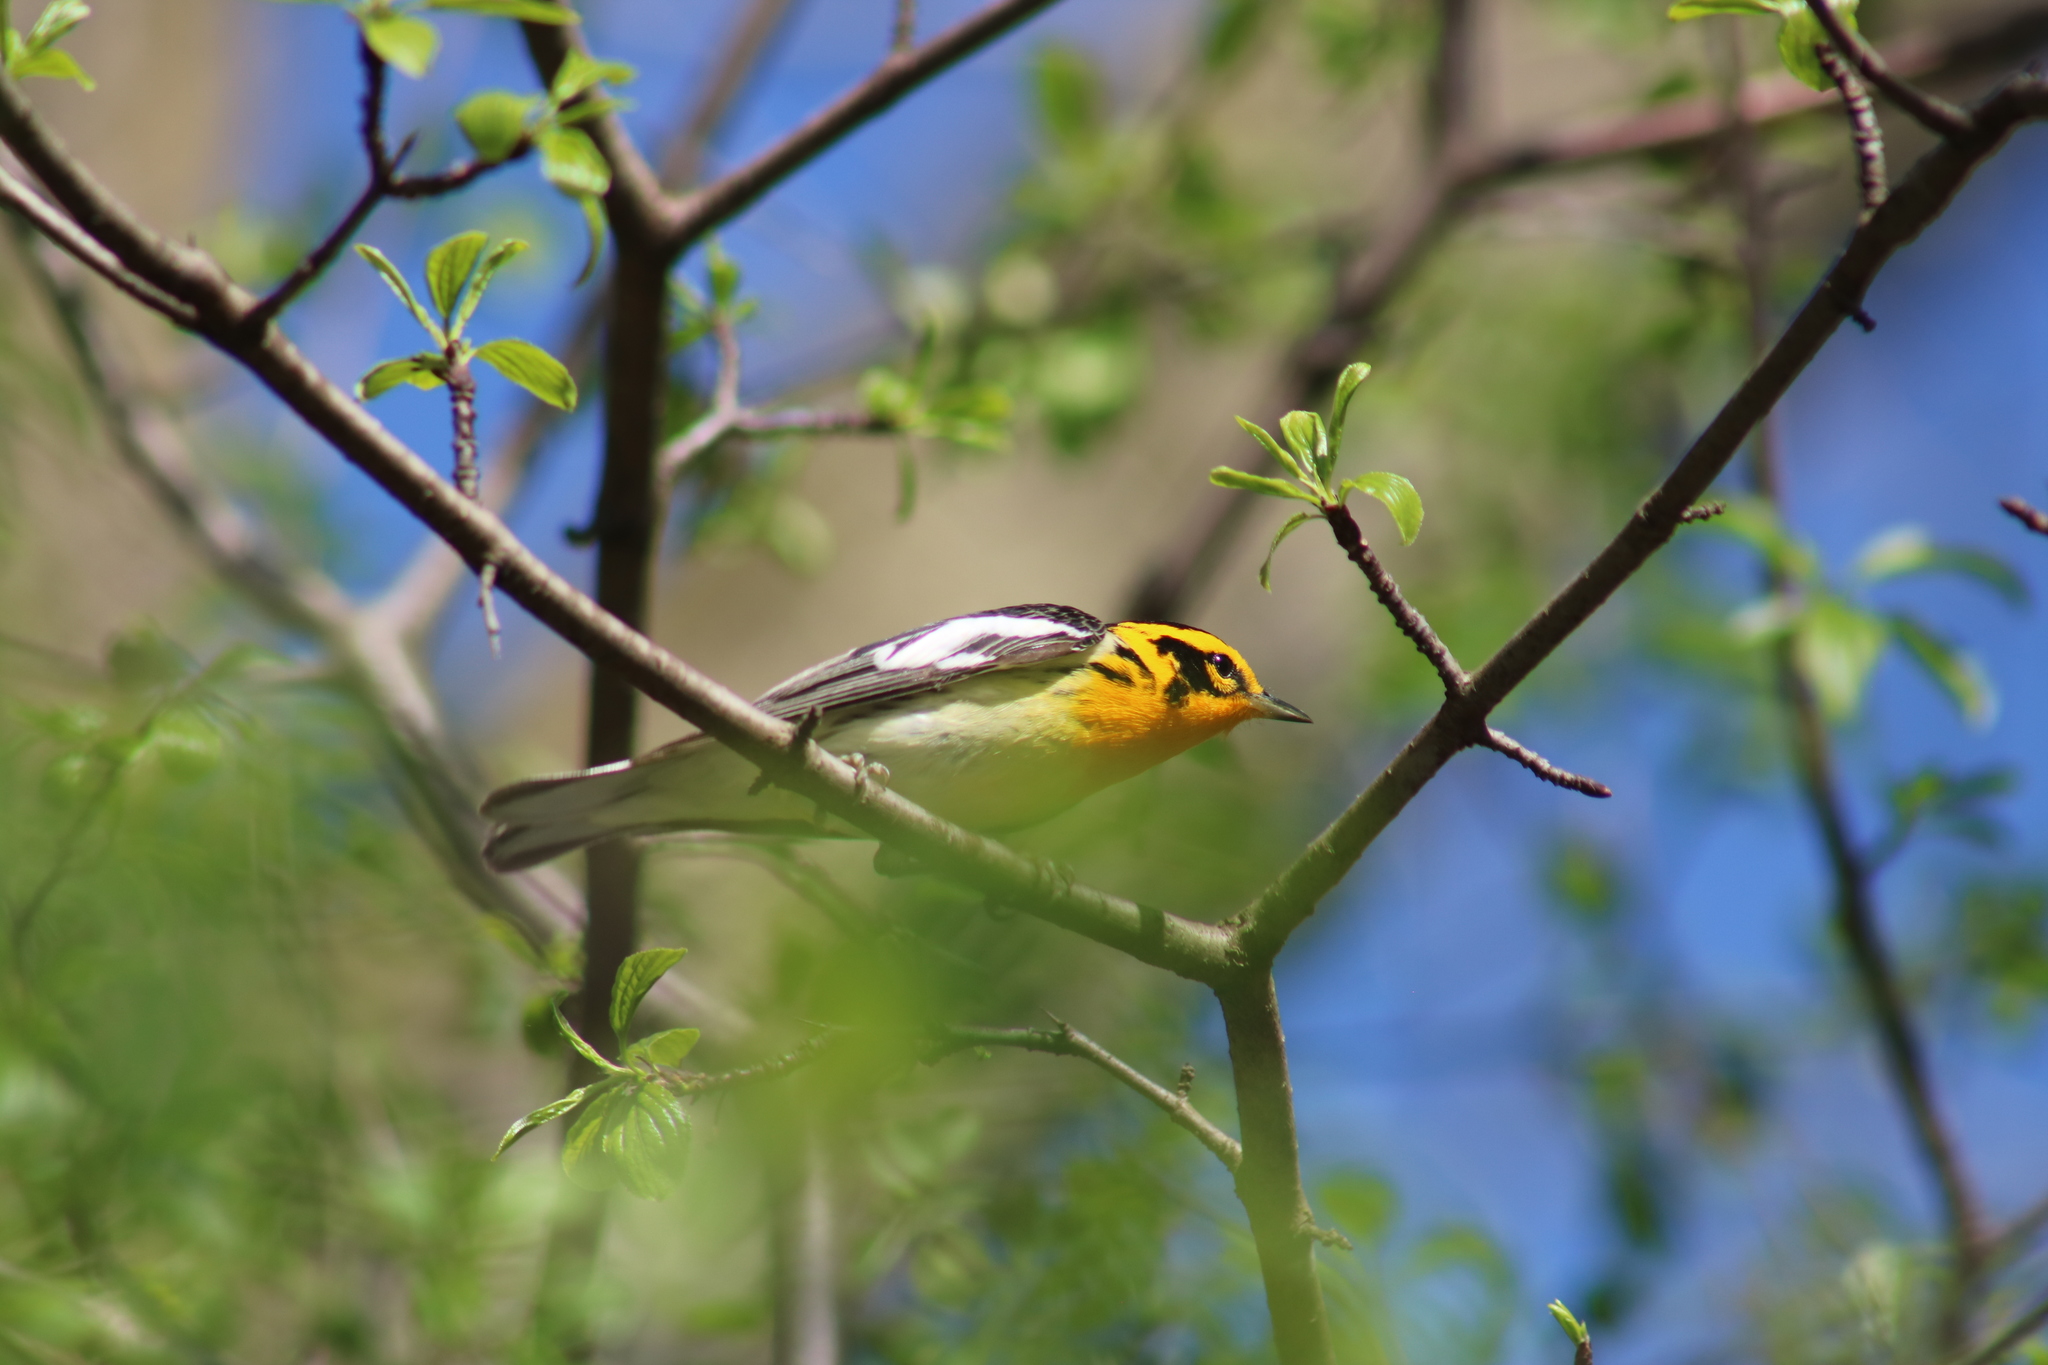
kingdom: Animalia
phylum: Chordata
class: Aves
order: Passeriformes
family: Parulidae
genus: Setophaga
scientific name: Setophaga fusca
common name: Blackburnian warbler
